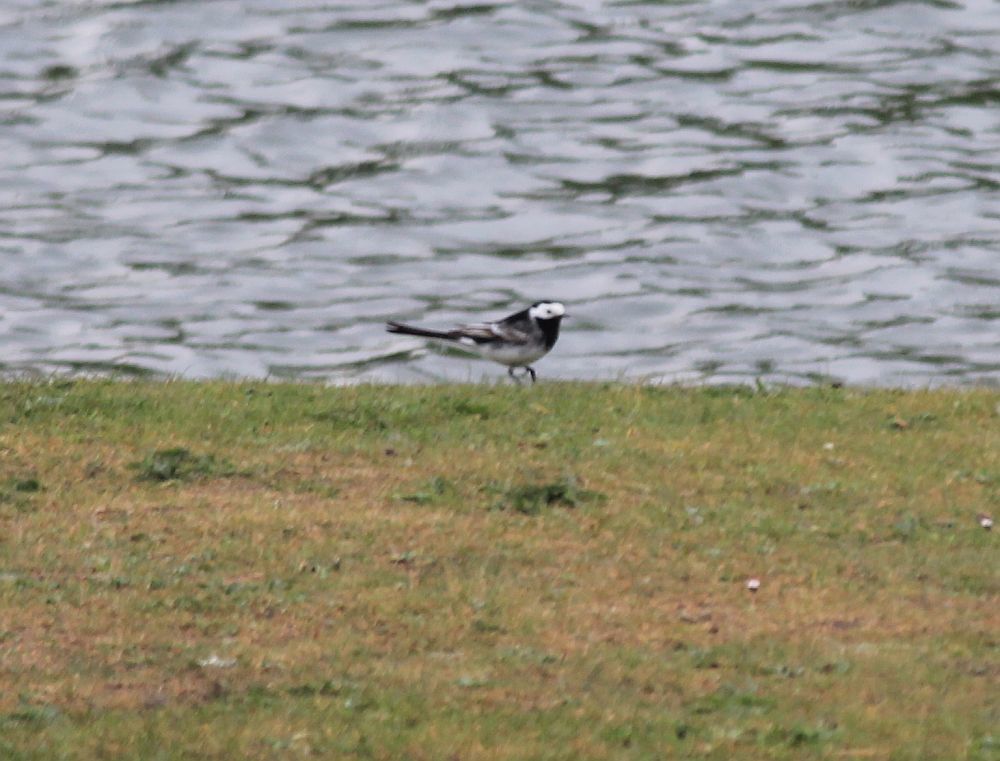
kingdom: Animalia
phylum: Chordata
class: Aves
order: Passeriformes
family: Motacillidae
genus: Motacilla
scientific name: Motacilla alba
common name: White wagtail
